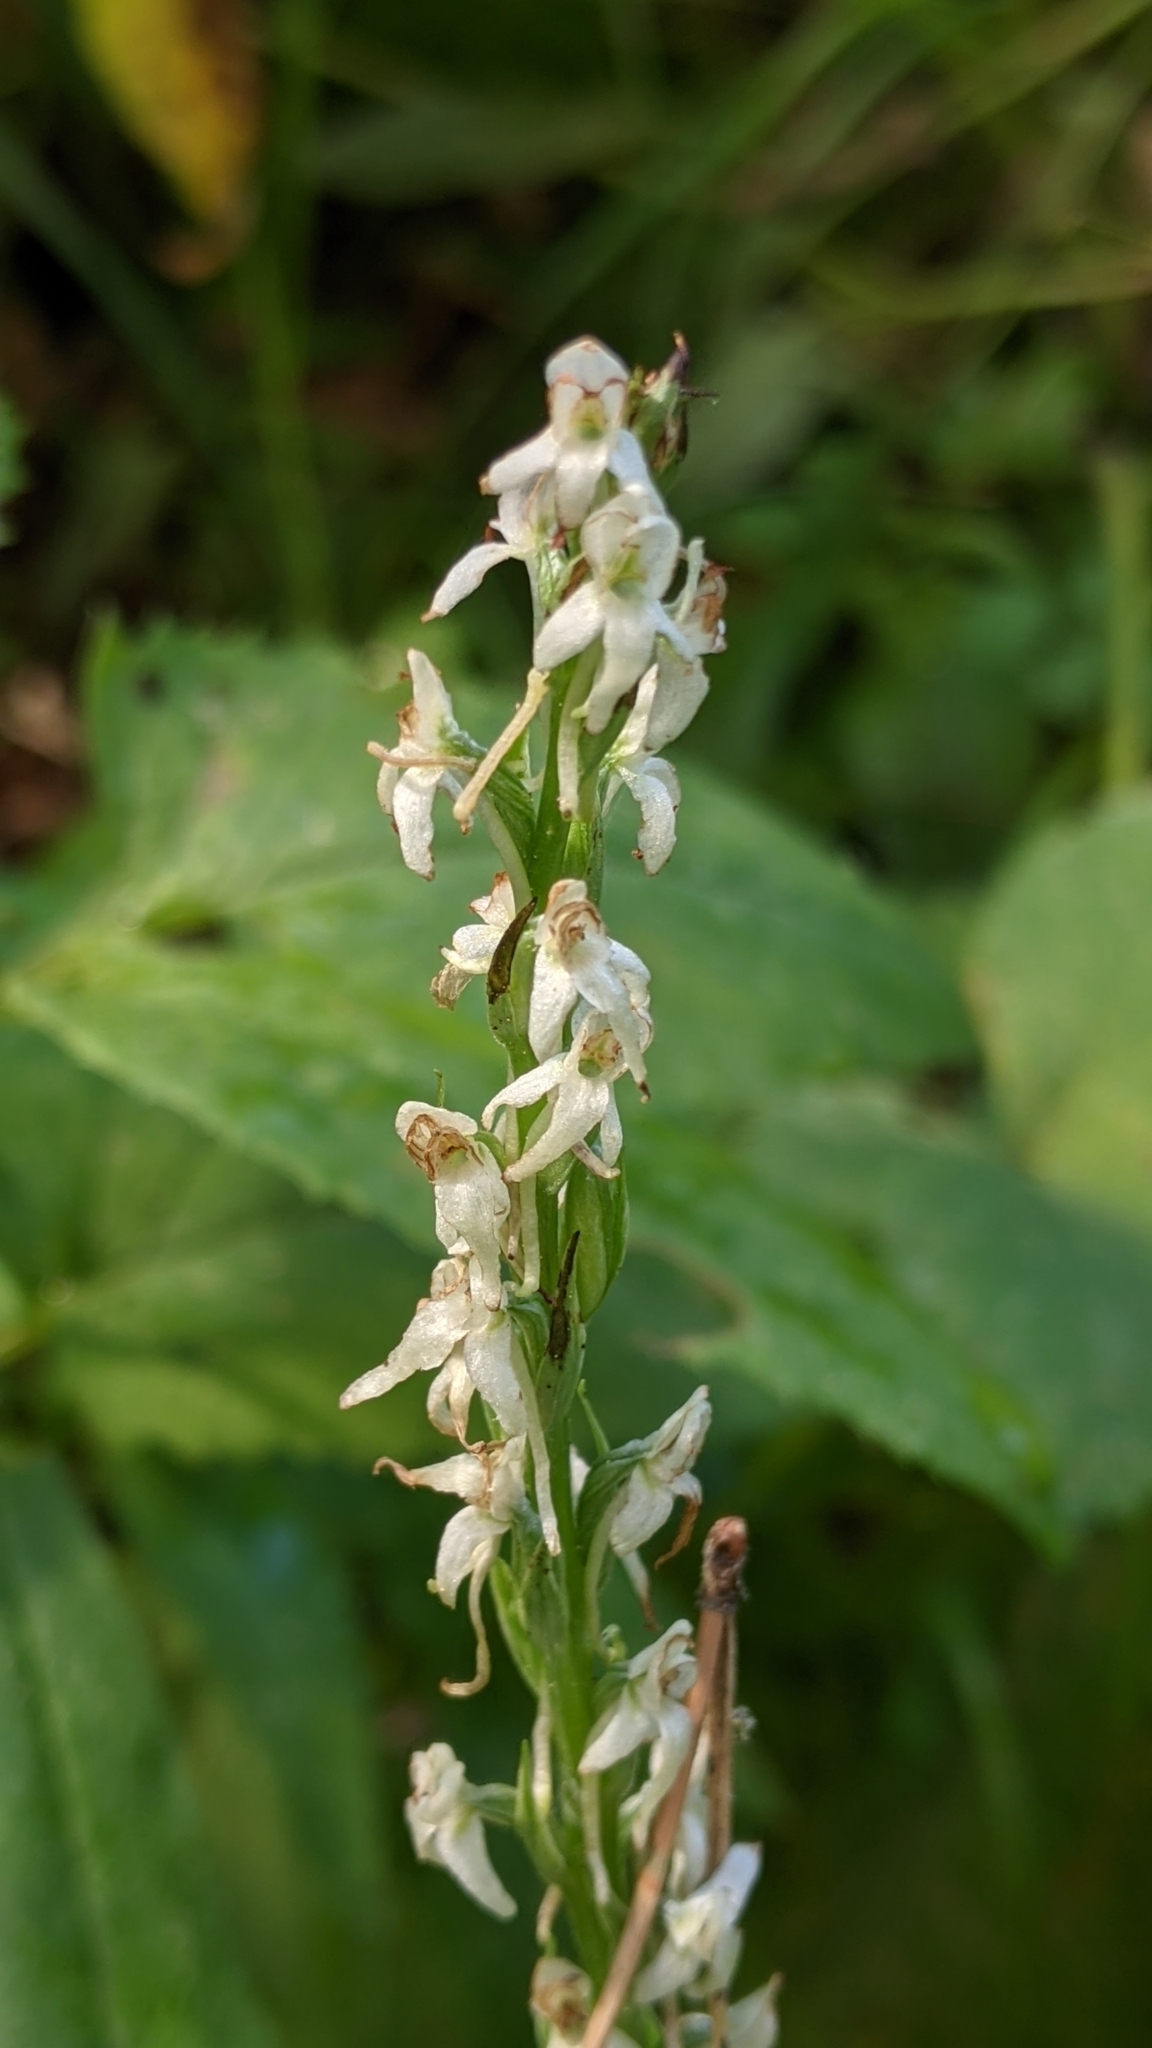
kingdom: Plantae
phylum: Tracheophyta
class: Liliopsida
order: Asparagales
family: Orchidaceae
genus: Platanthera
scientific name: Platanthera dilatata
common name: Bog candles
